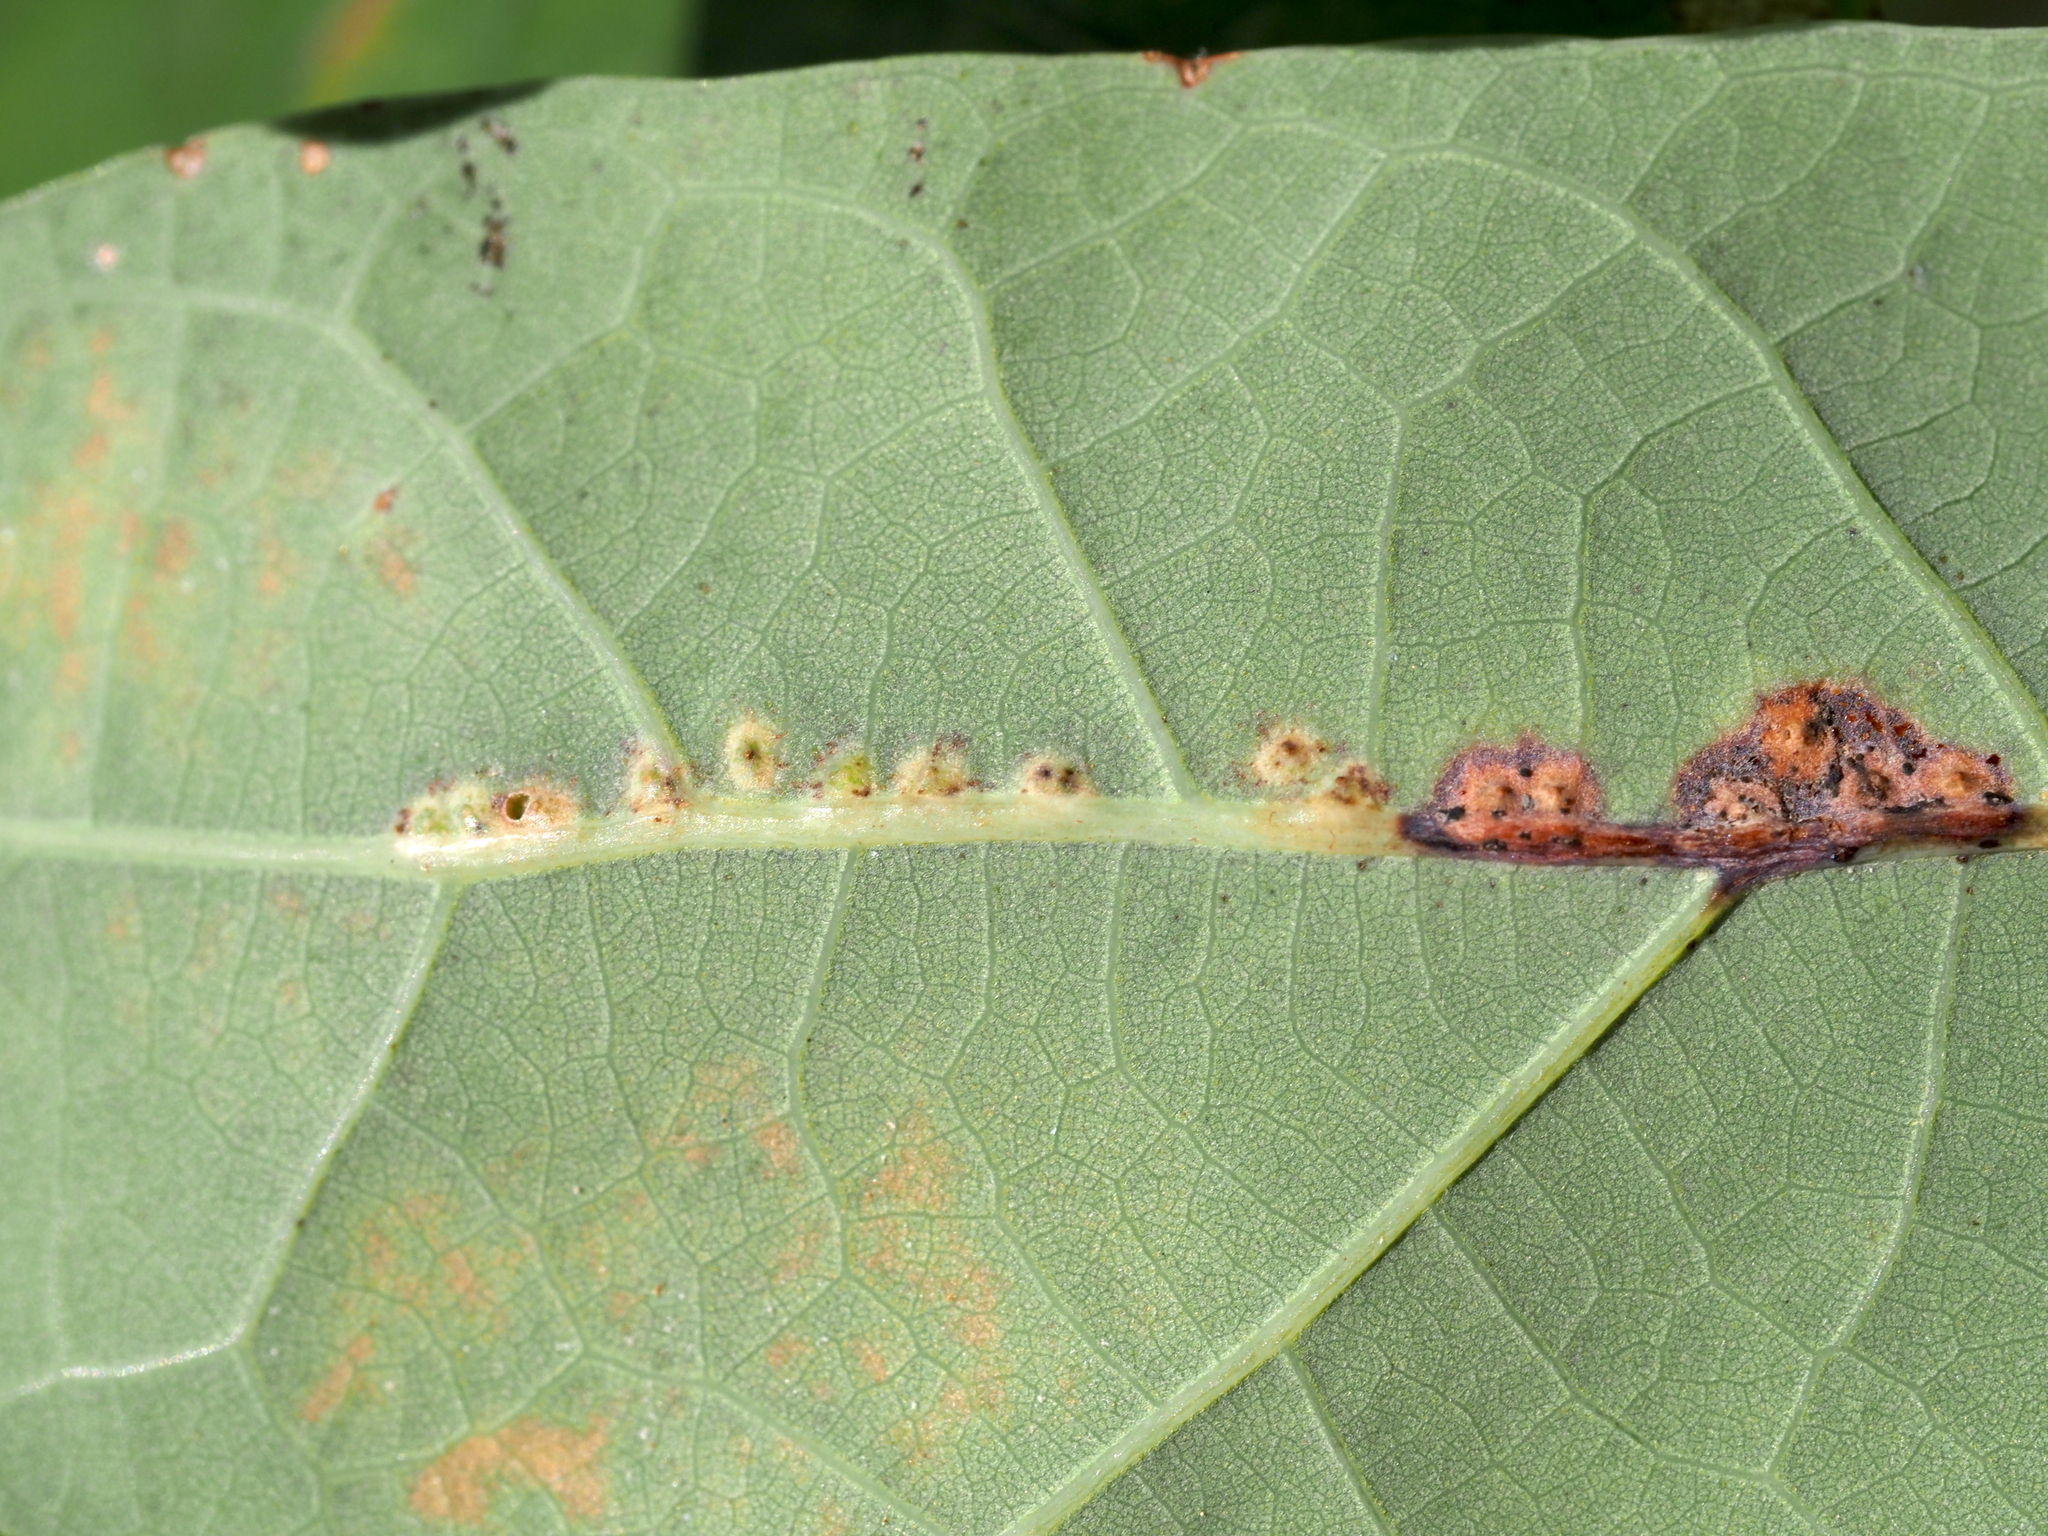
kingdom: Animalia
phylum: Arthropoda
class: Insecta
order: Hymenoptera
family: Cynipidae
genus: Neuroterus
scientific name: Neuroterus niger
